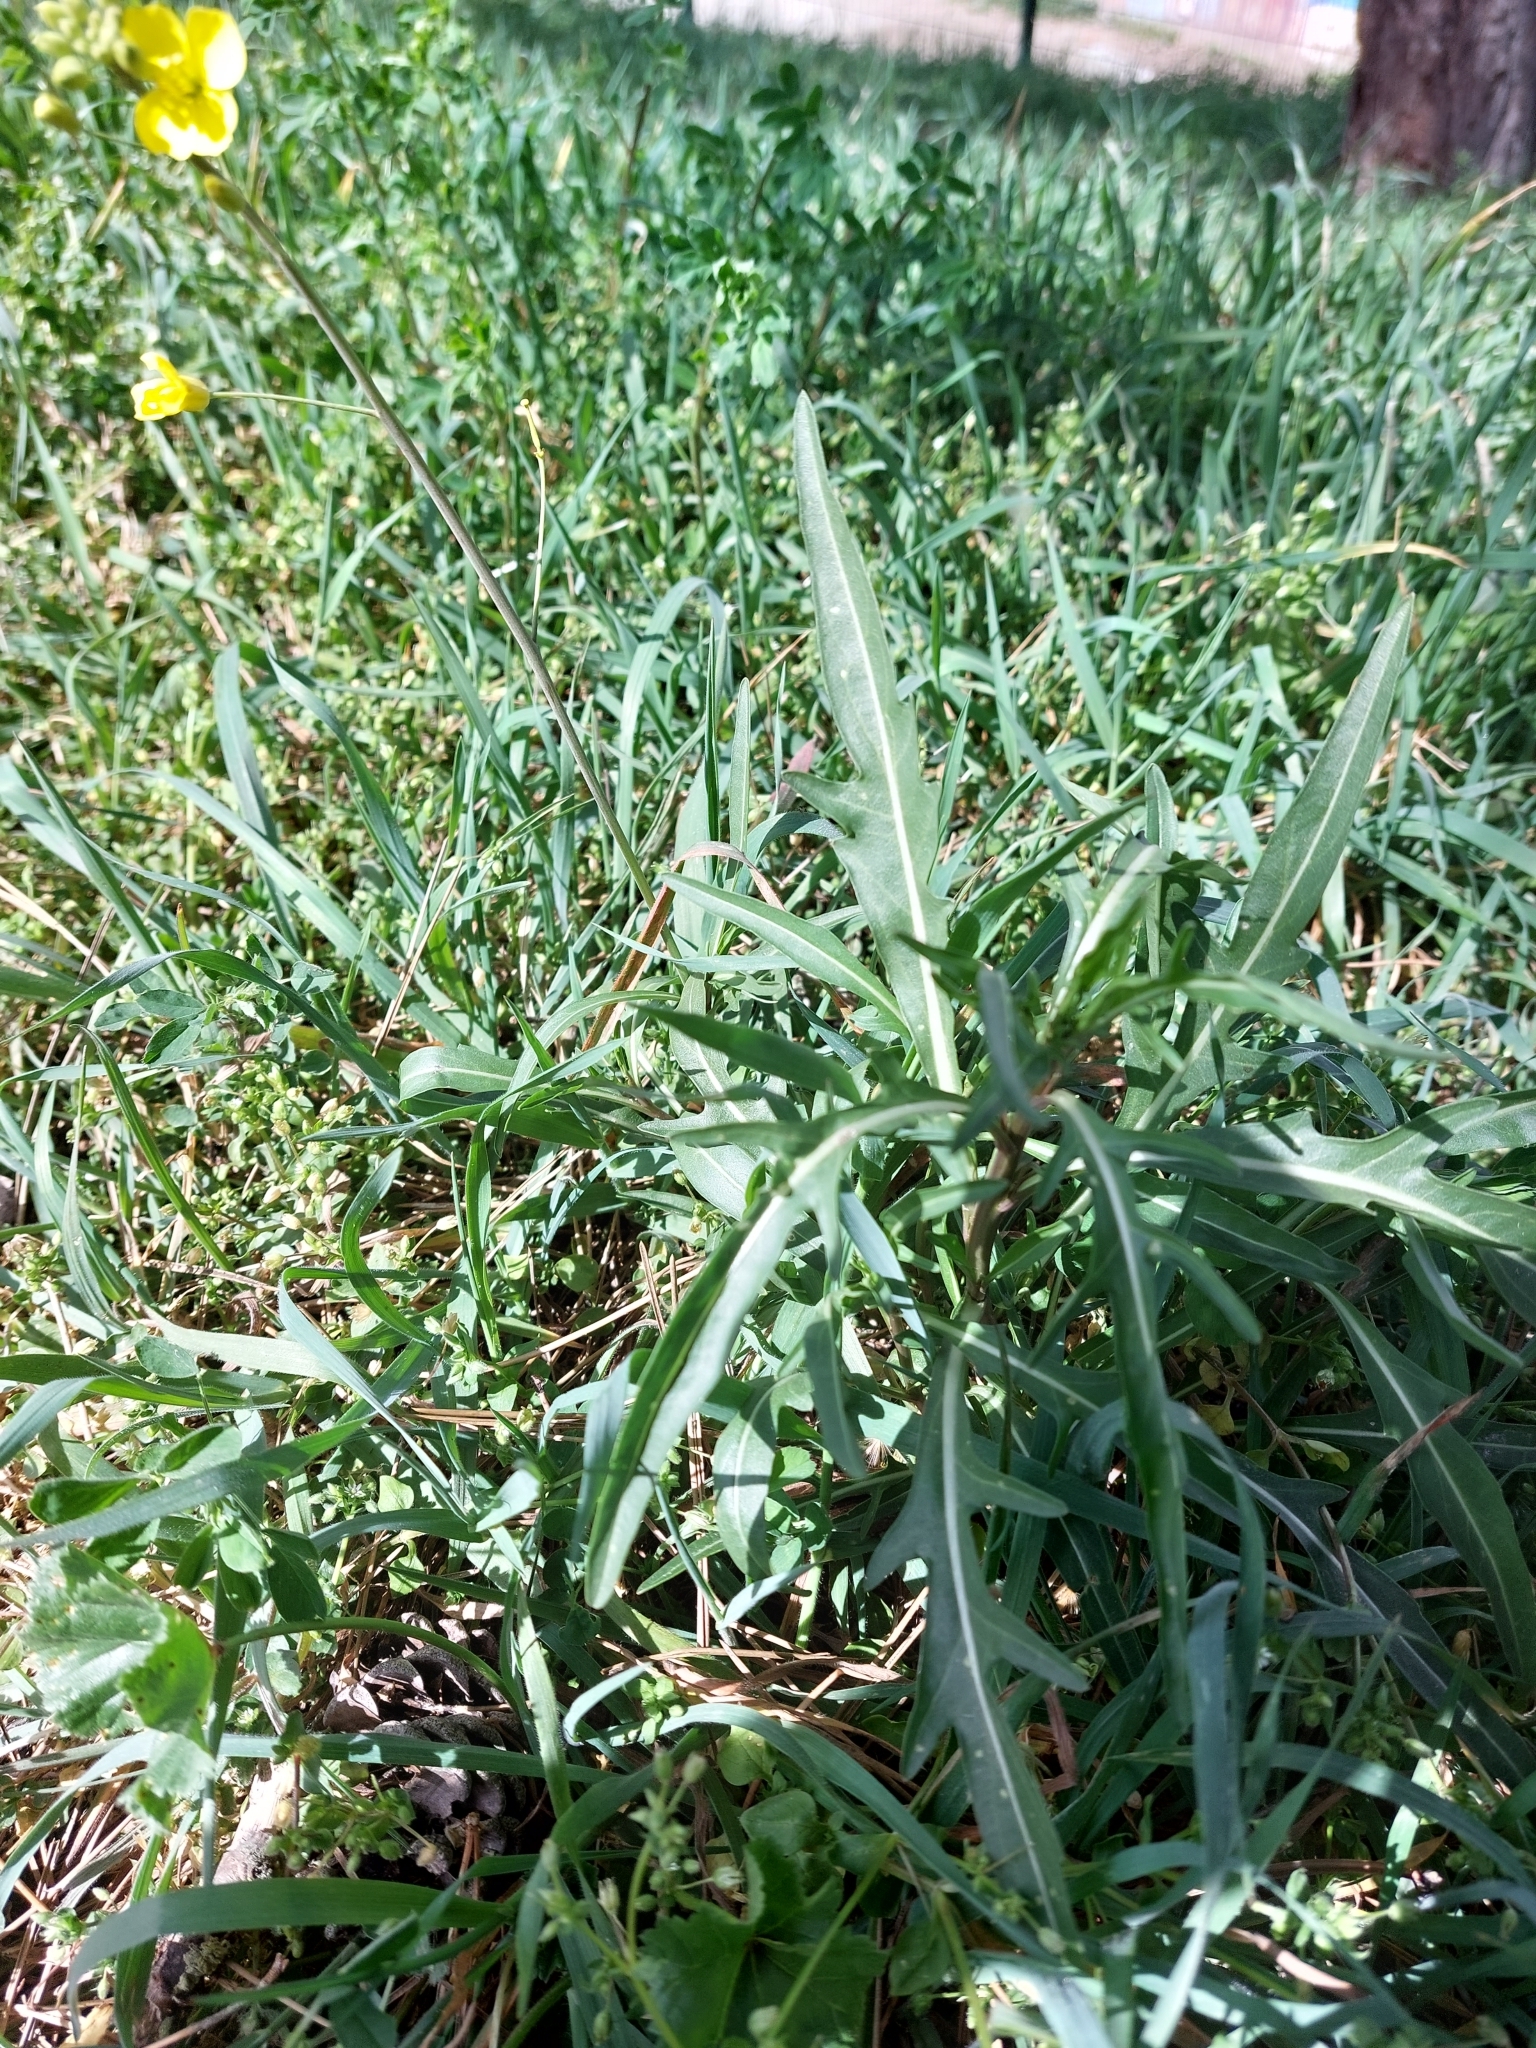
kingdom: Plantae
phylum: Tracheophyta
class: Magnoliopsida
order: Brassicales
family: Brassicaceae
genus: Diplotaxis
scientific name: Diplotaxis tenuifolia
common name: Perennial wall-rocket
